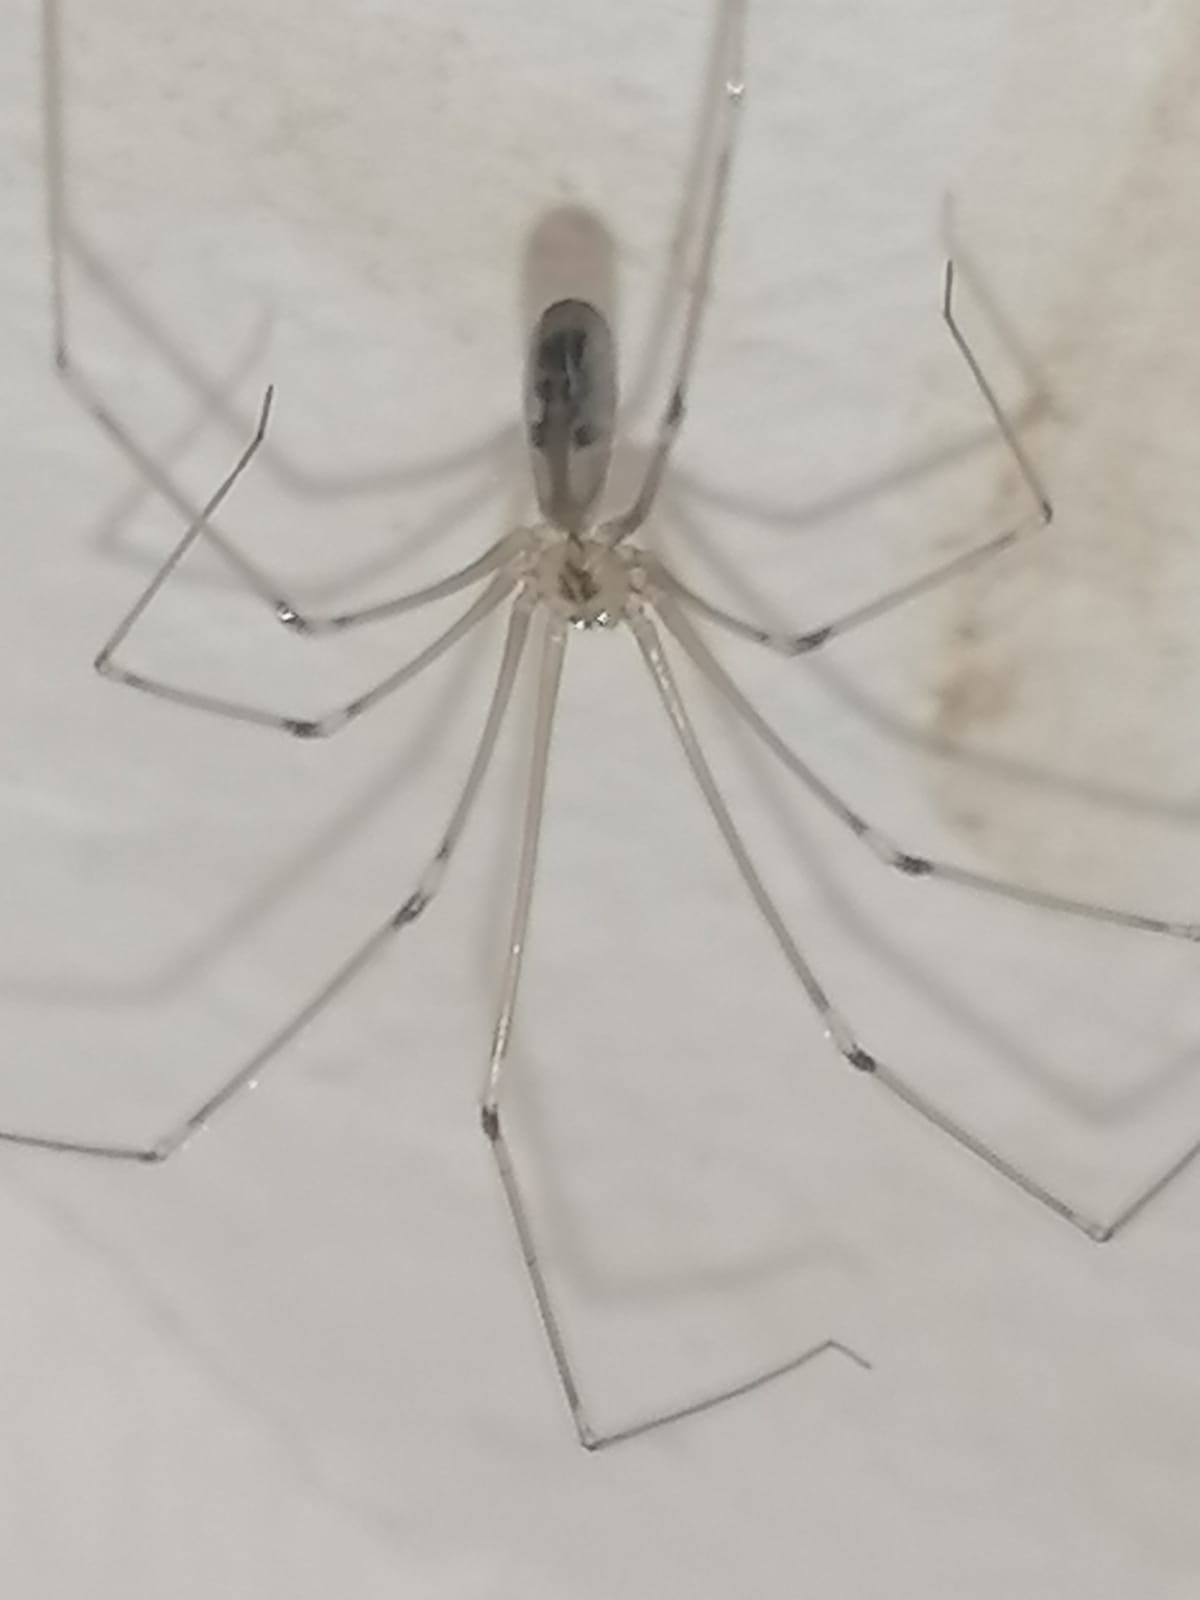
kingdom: Animalia
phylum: Arthropoda
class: Arachnida
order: Araneae
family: Pholcidae
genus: Pholcus
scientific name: Pholcus phalangioides
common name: Longbodied cellar spider
